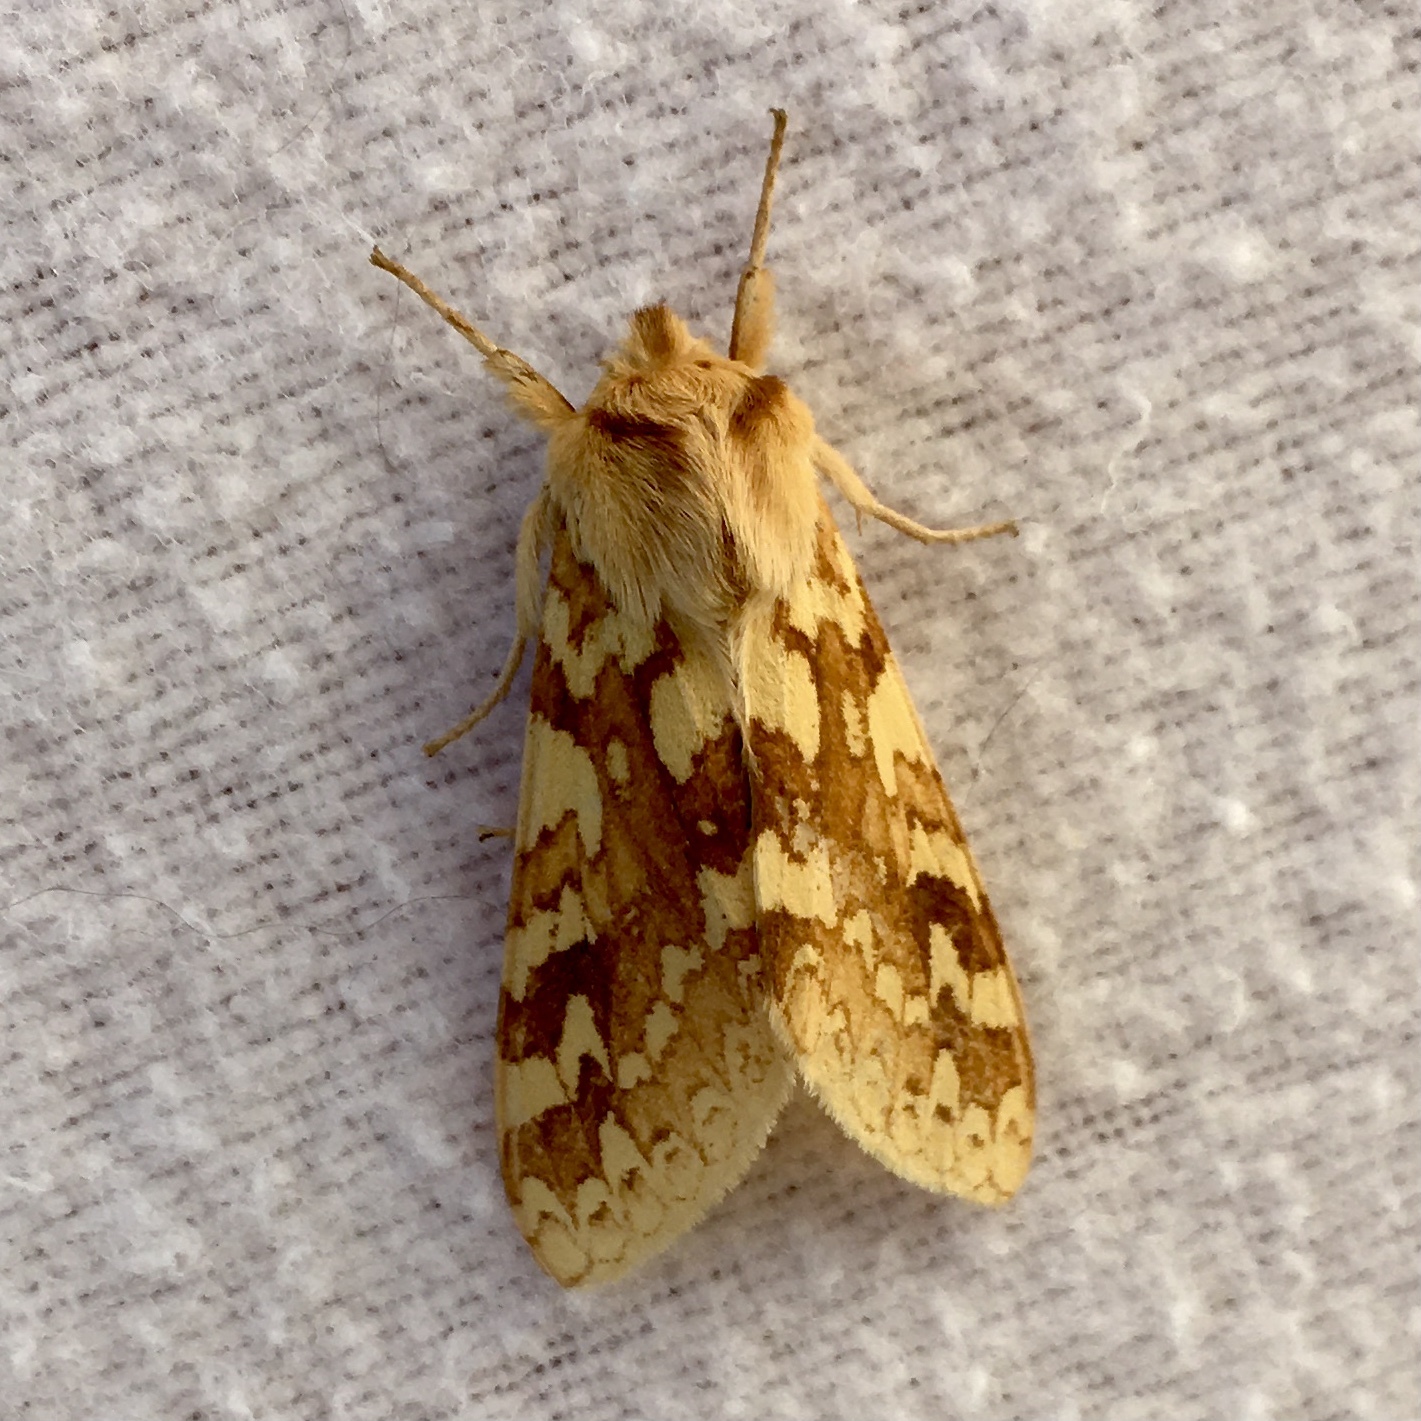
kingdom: Animalia
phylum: Arthropoda
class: Insecta
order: Lepidoptera
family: Erebidae
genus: Lophocampa
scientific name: Lophocampa maculata
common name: Spotted tussock moth
